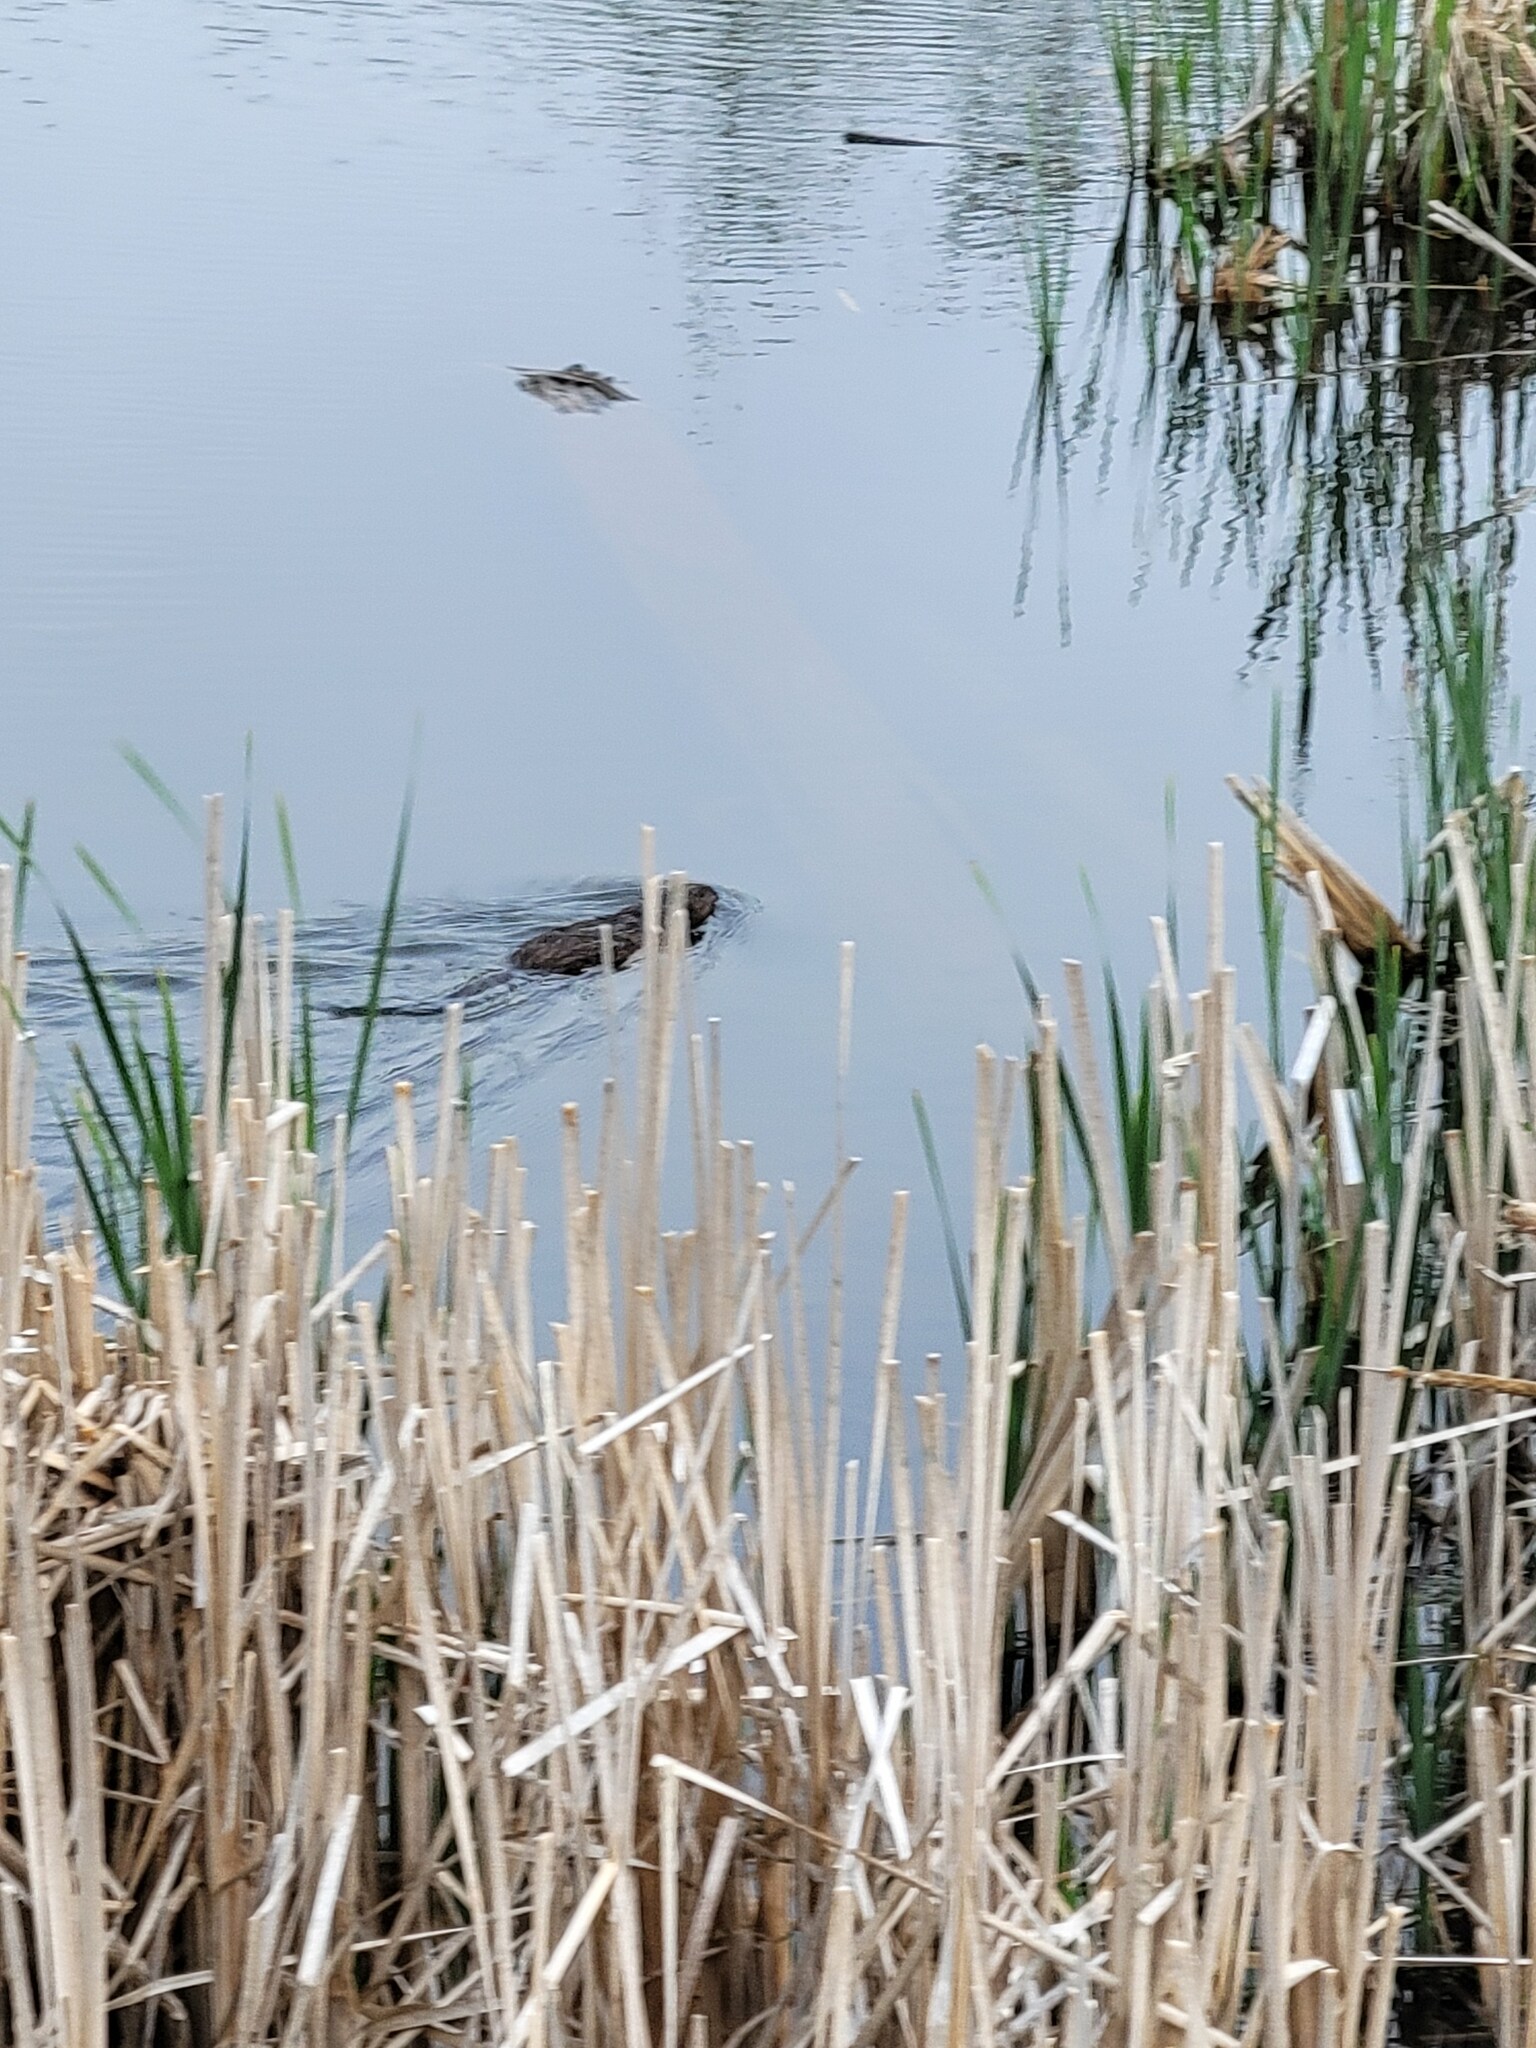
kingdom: Animalia
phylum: Chordata
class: Mammalia
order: Rodentia
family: Cricetidae
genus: Ondatra
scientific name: Ondatra zibethicus
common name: Muskrat
